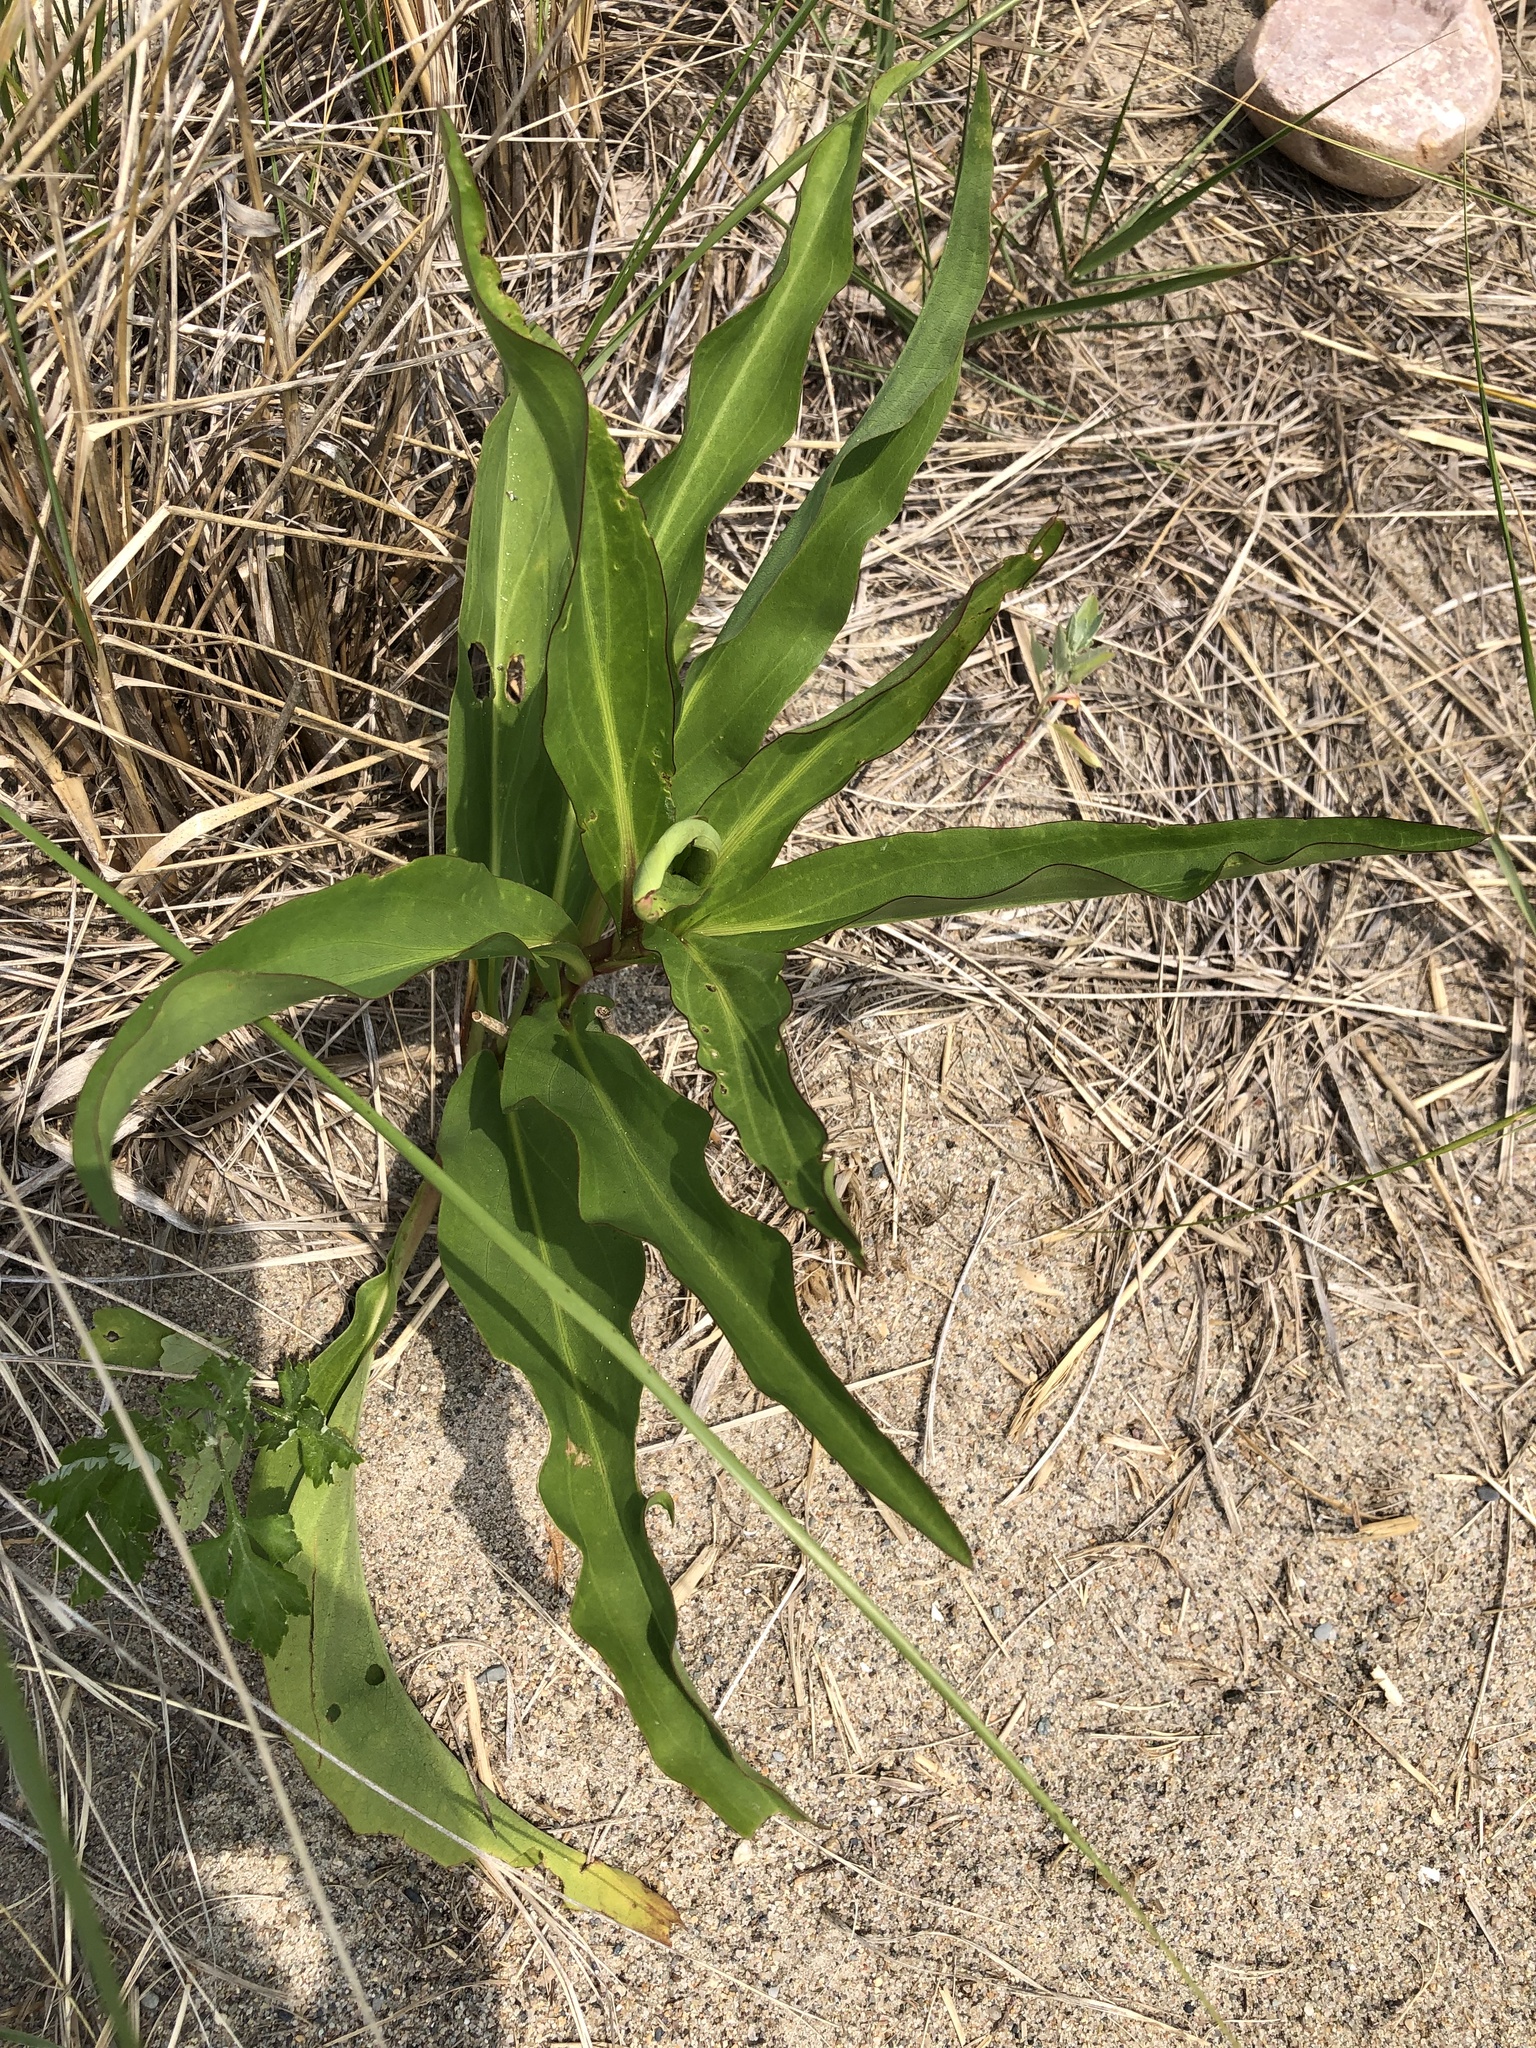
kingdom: Plantae
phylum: Tracheophyta
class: Magnoliopsida
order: Asterales
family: Asteraceae
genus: Solidago
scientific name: Solidago sempervirens
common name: Salt-marsh goldenrod
